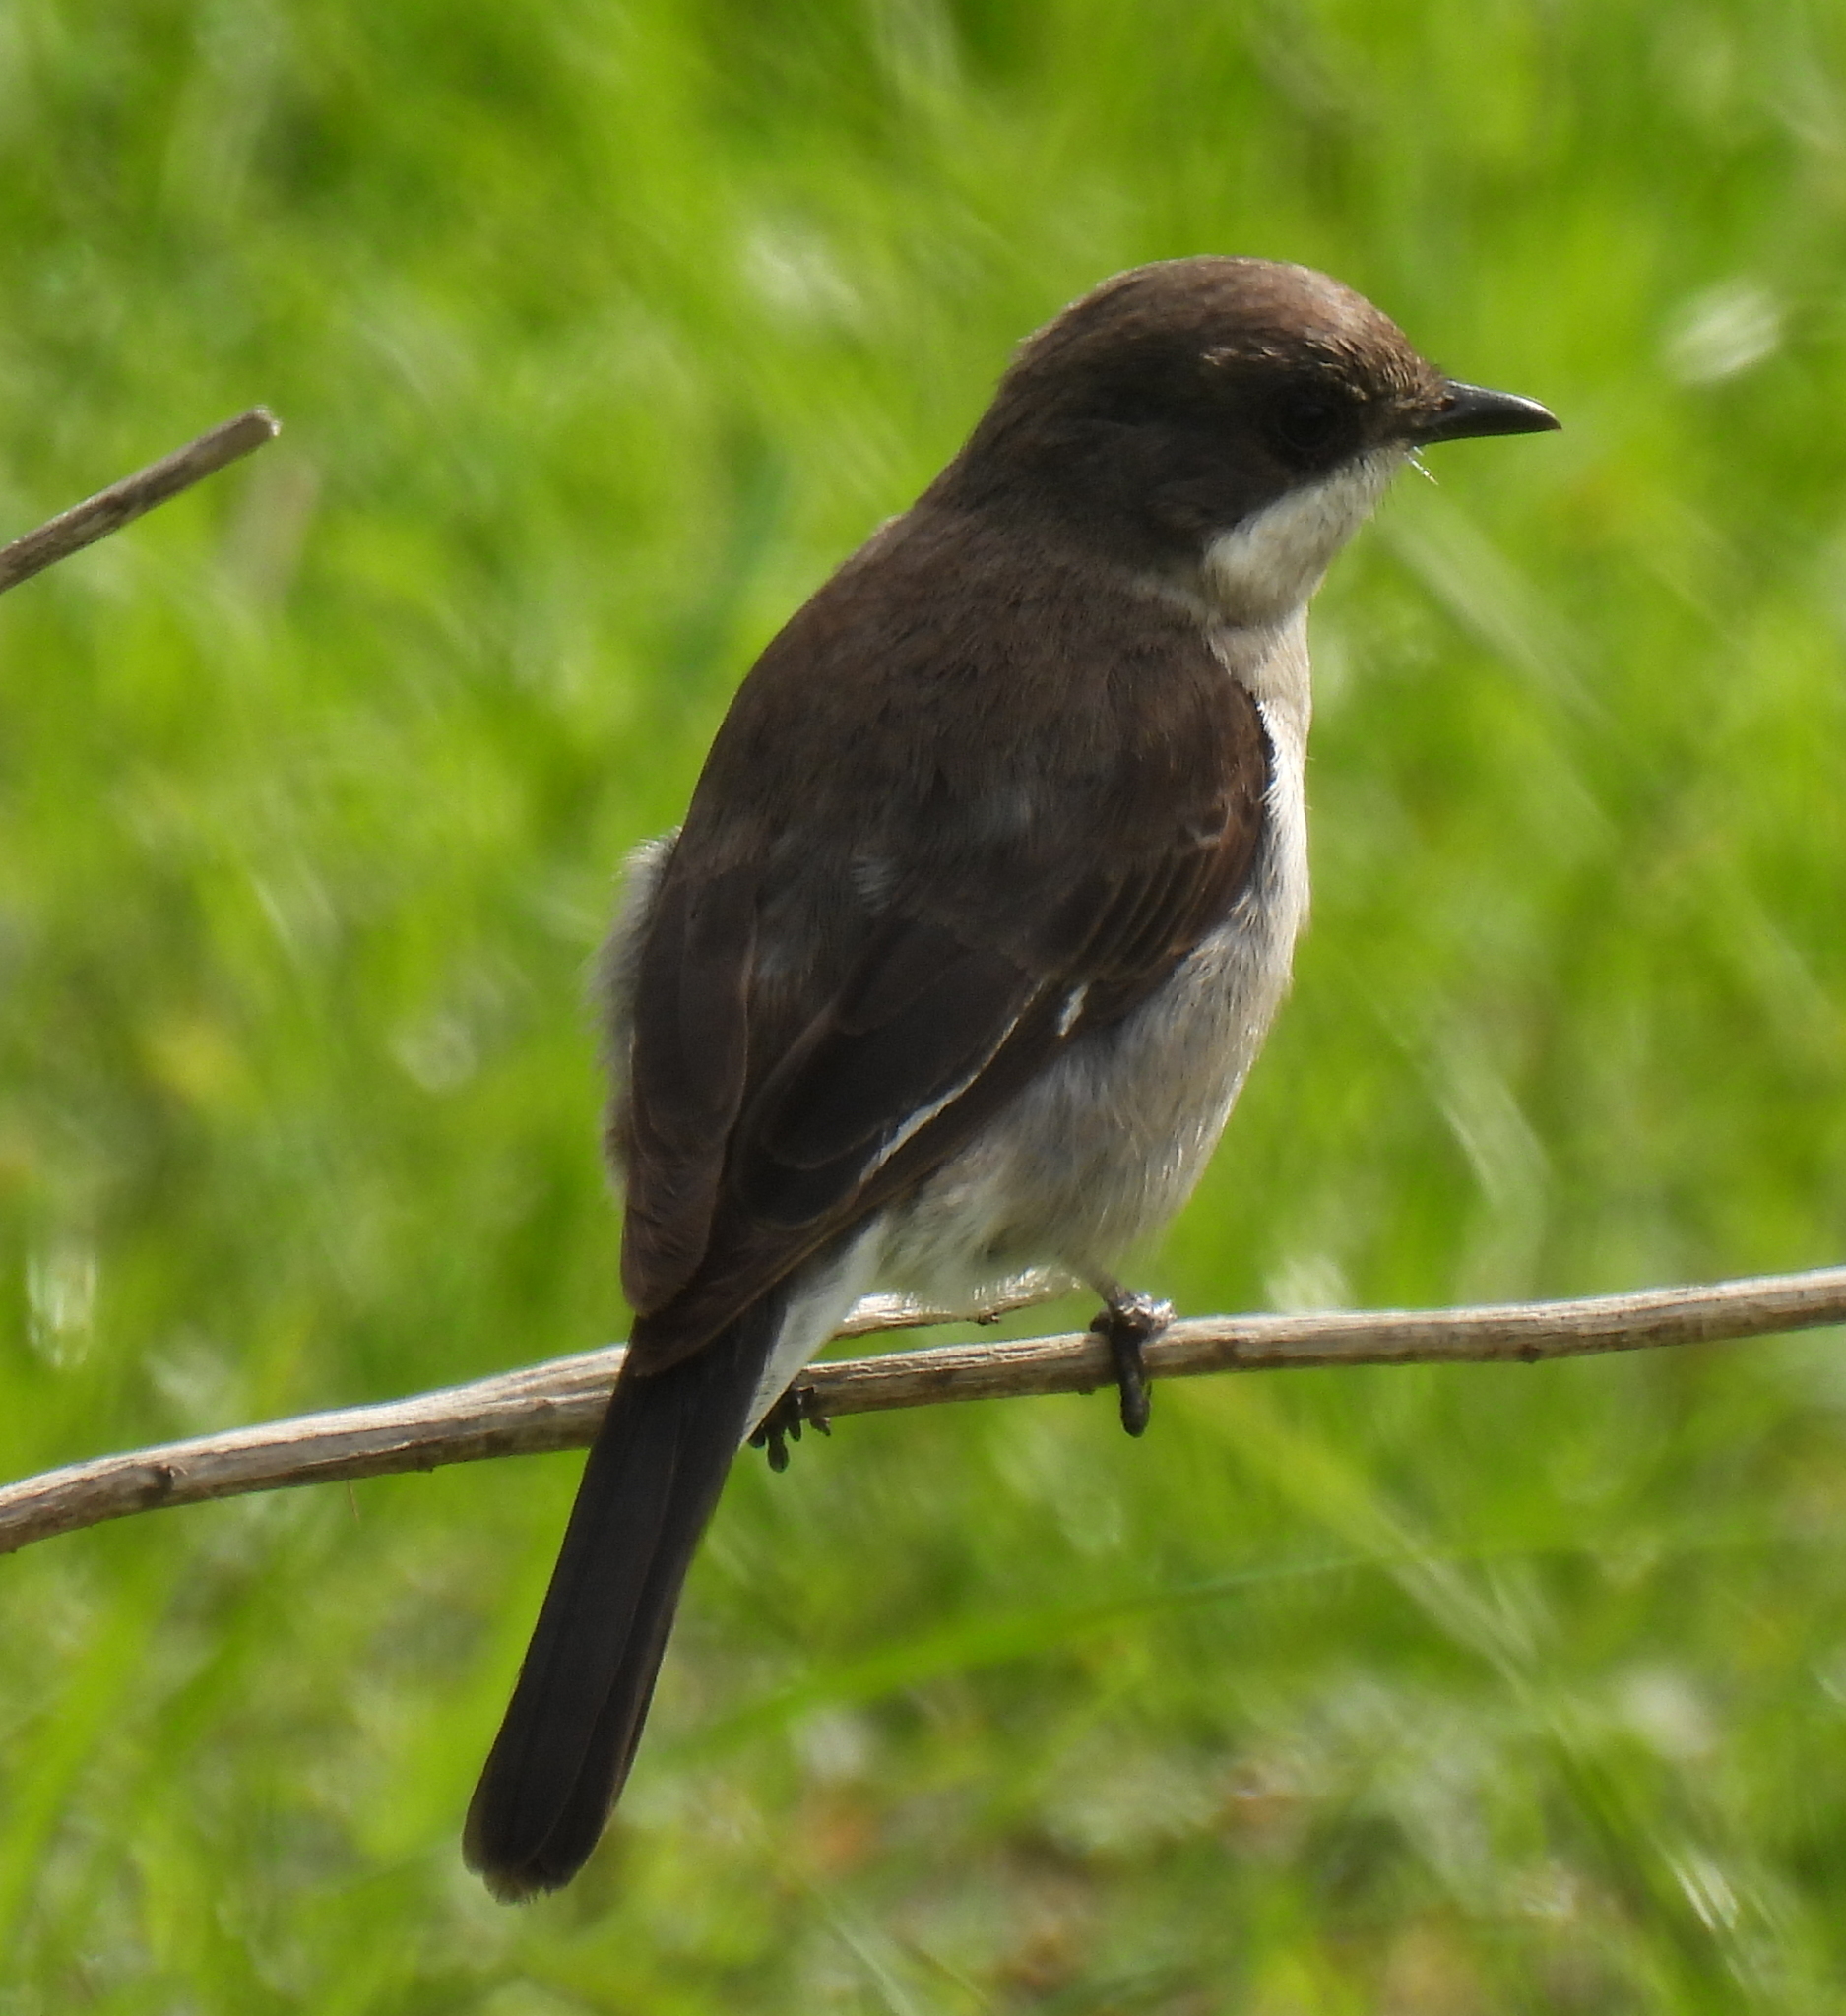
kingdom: Animalia
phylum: Chordata
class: Aves
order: Passeriformes
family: Muscicapidae
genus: Sigelus
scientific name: Sigelus silens
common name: Fiscal flycatcher
